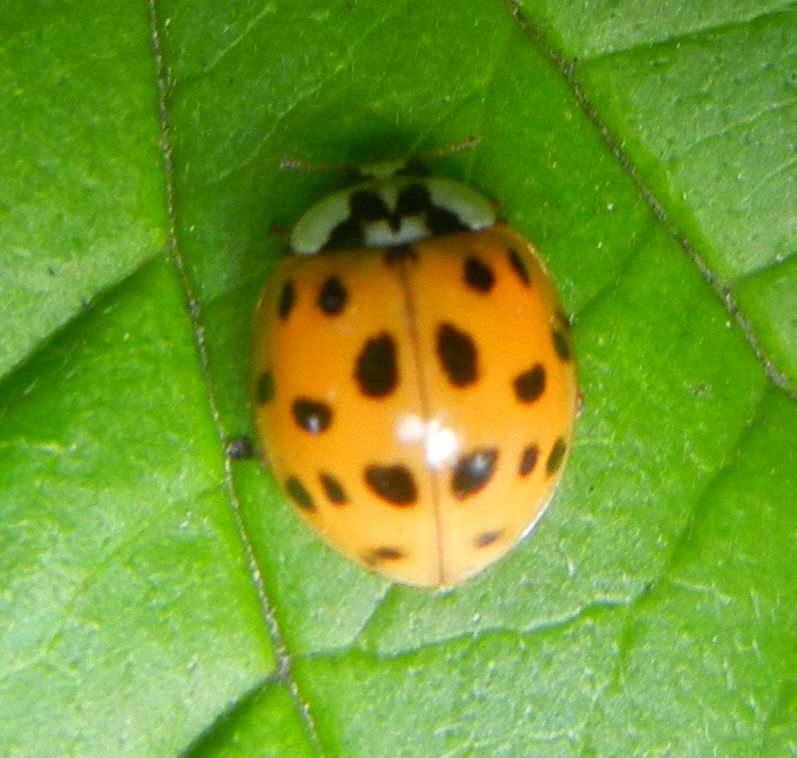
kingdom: Animalia
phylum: Arthropoda
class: Insecta
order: Coleoptera
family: Coccinellidae
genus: Harmonia
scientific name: Harmonia axyridis
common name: Harlequin ladybird
